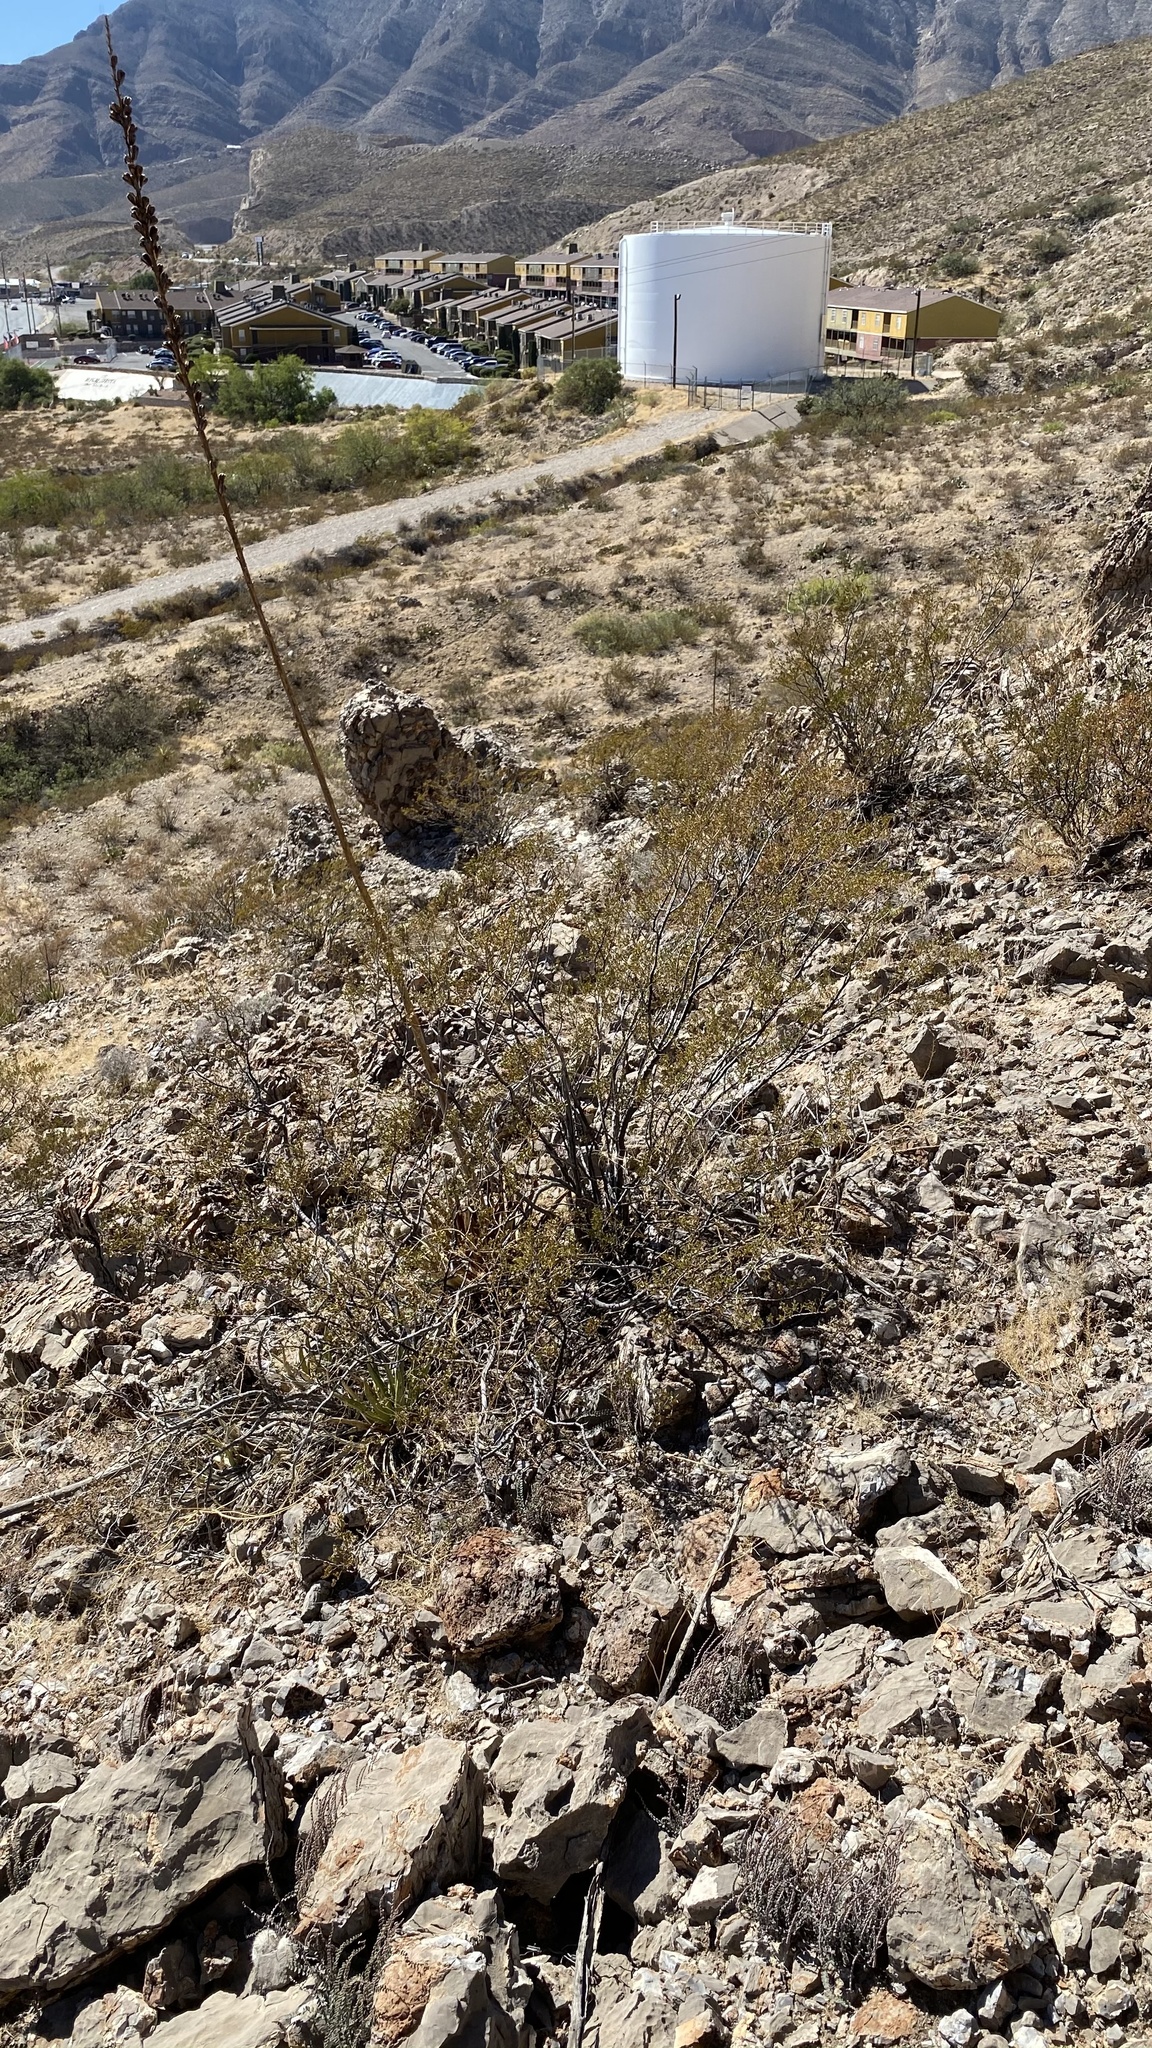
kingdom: Plantae
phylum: Tracheophyta
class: Magnoliopsida
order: Zygophyllales
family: Zygophyllaceae
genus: Larrea
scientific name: Larrea tridentata
